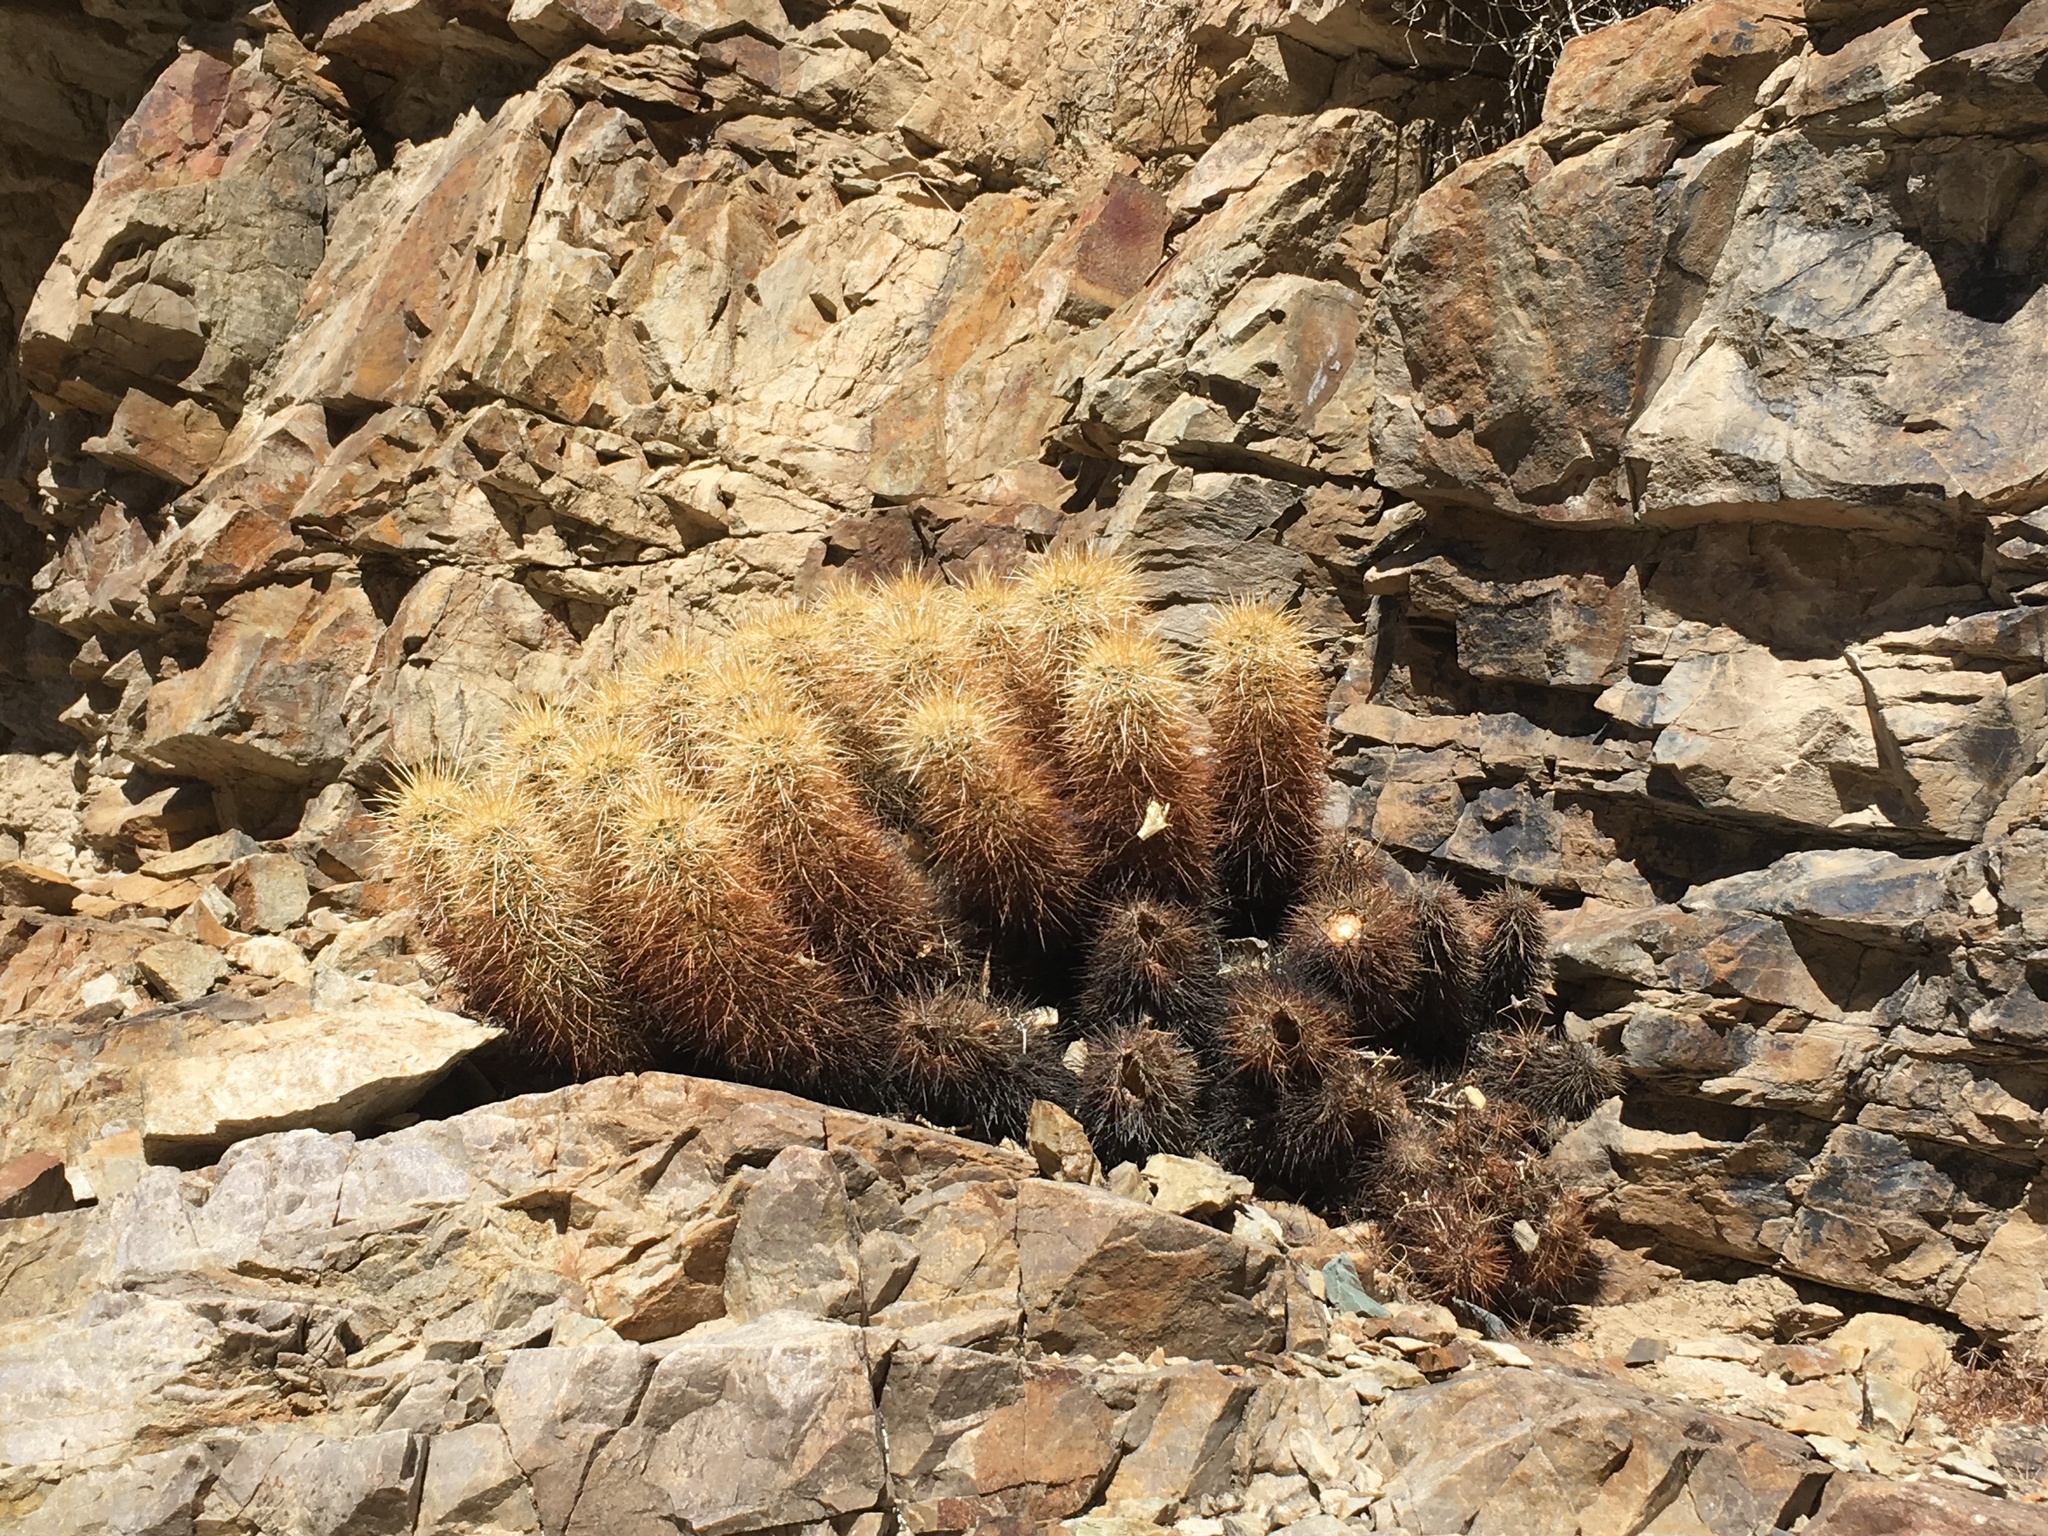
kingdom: Plantae
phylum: Tracheophyta
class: Magnoliopsida
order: Caryophyllales
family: Cactaceae
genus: Echinocereus
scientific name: Echinocereus engelmannii
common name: Engelmann's hedgehog cactus
